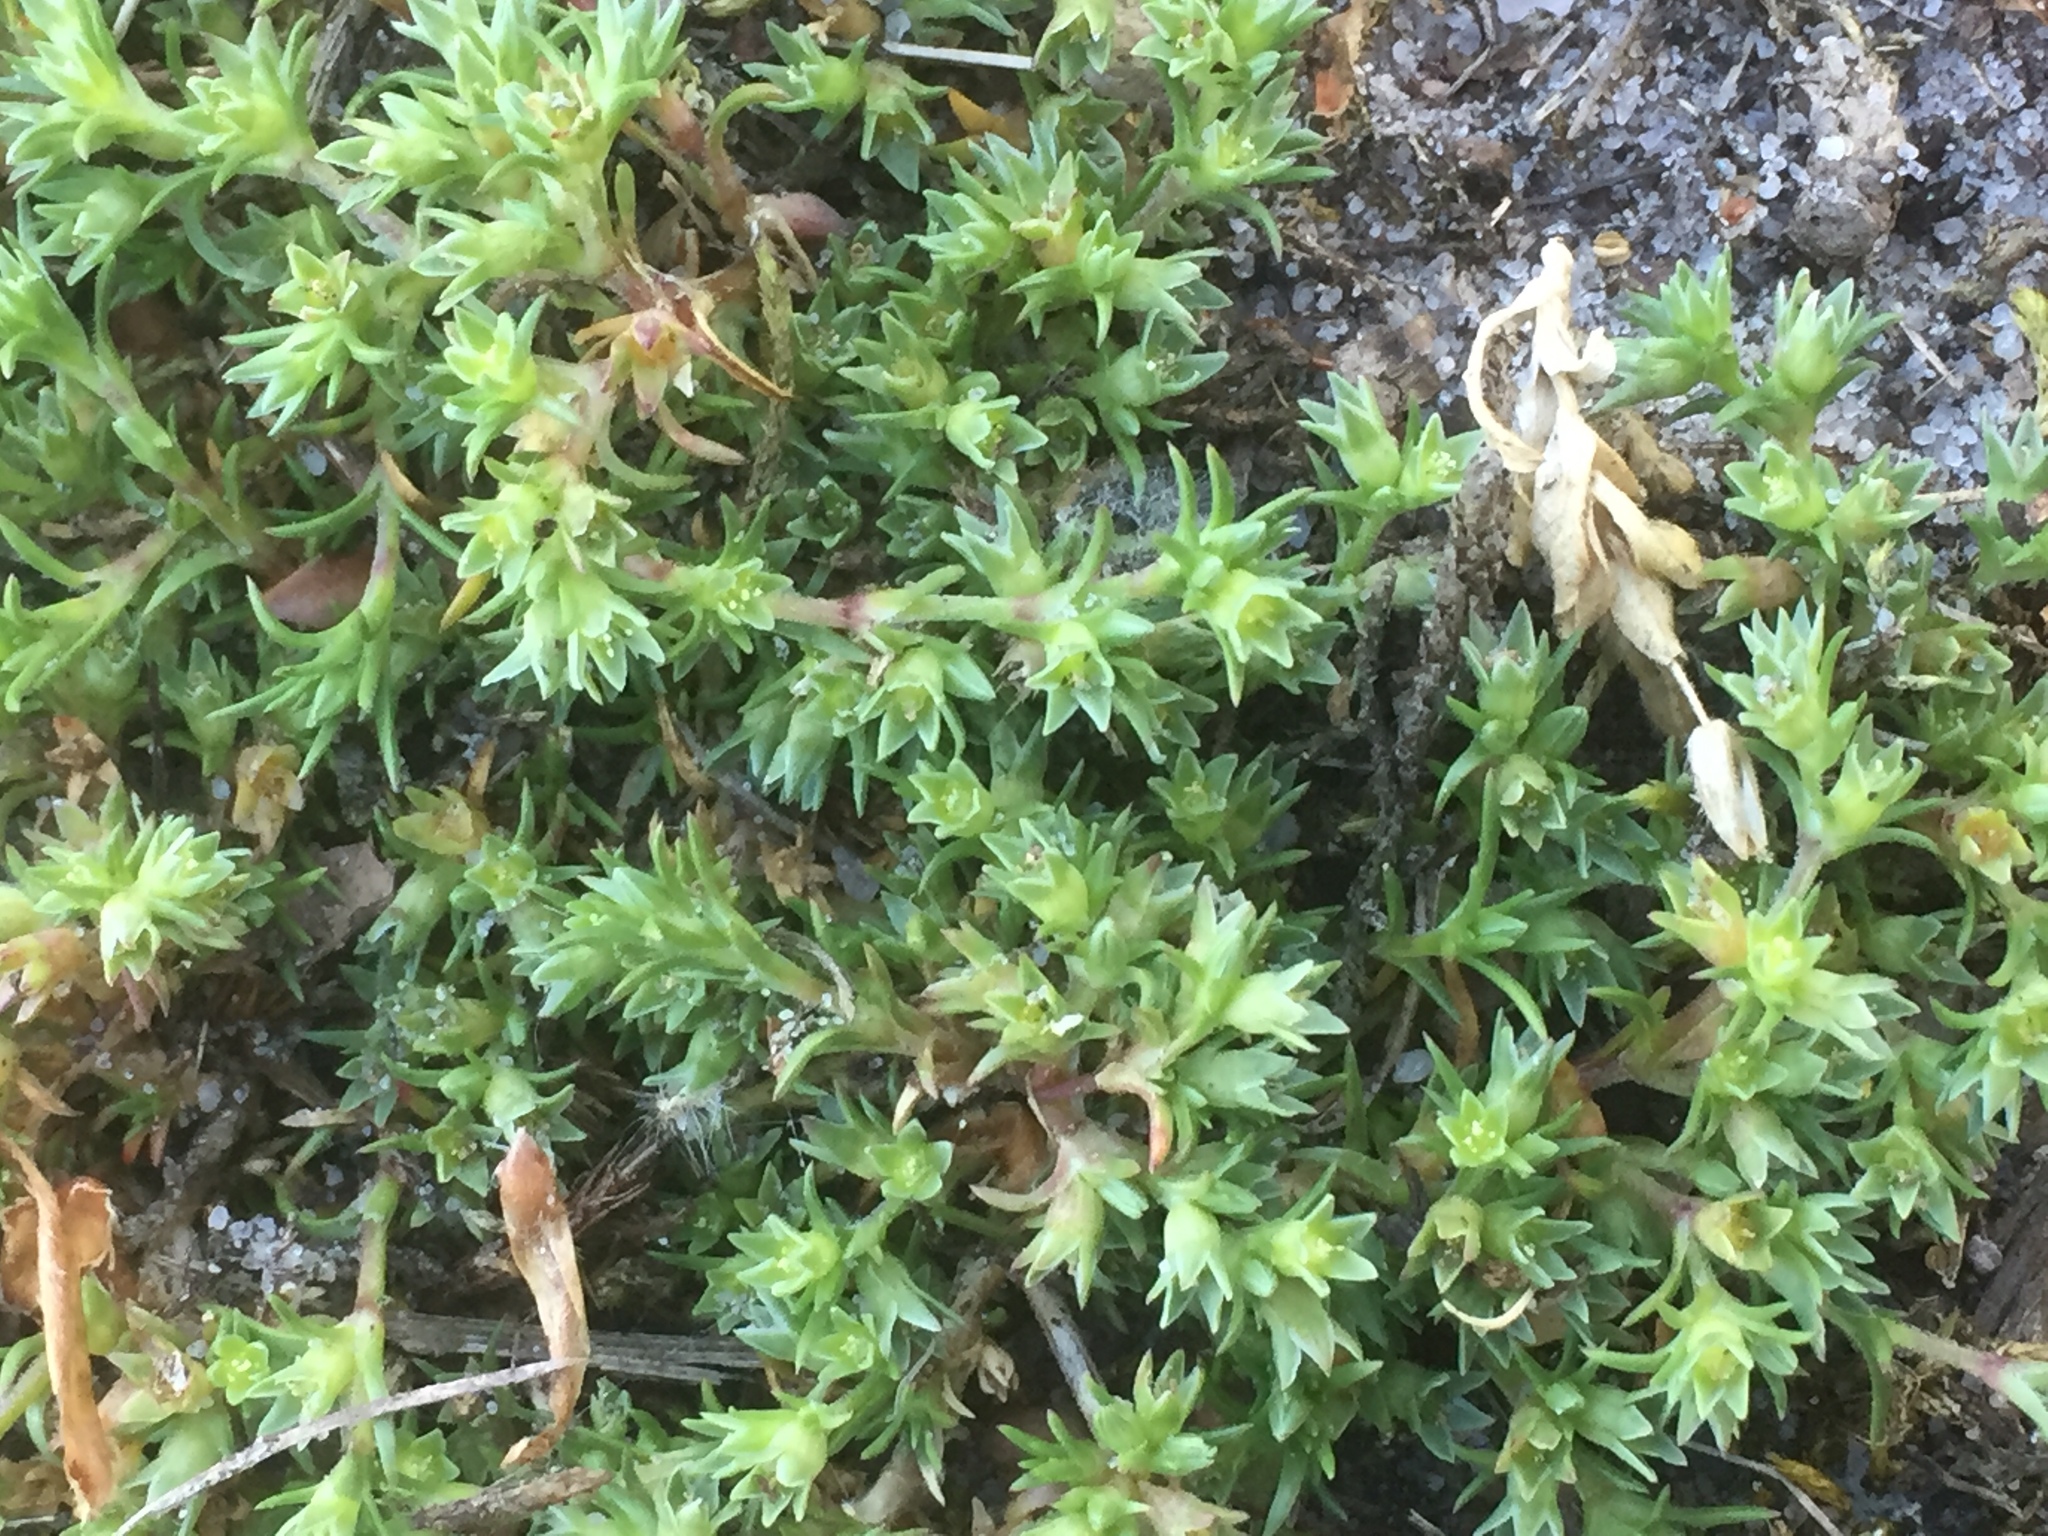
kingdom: Plantae
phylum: Tracheophyta
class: Magnoliopsida
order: Caryophyllales
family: Caryophyllaceae
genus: Scleranthus
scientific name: Scleranthus annuus
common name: Annual knawel
